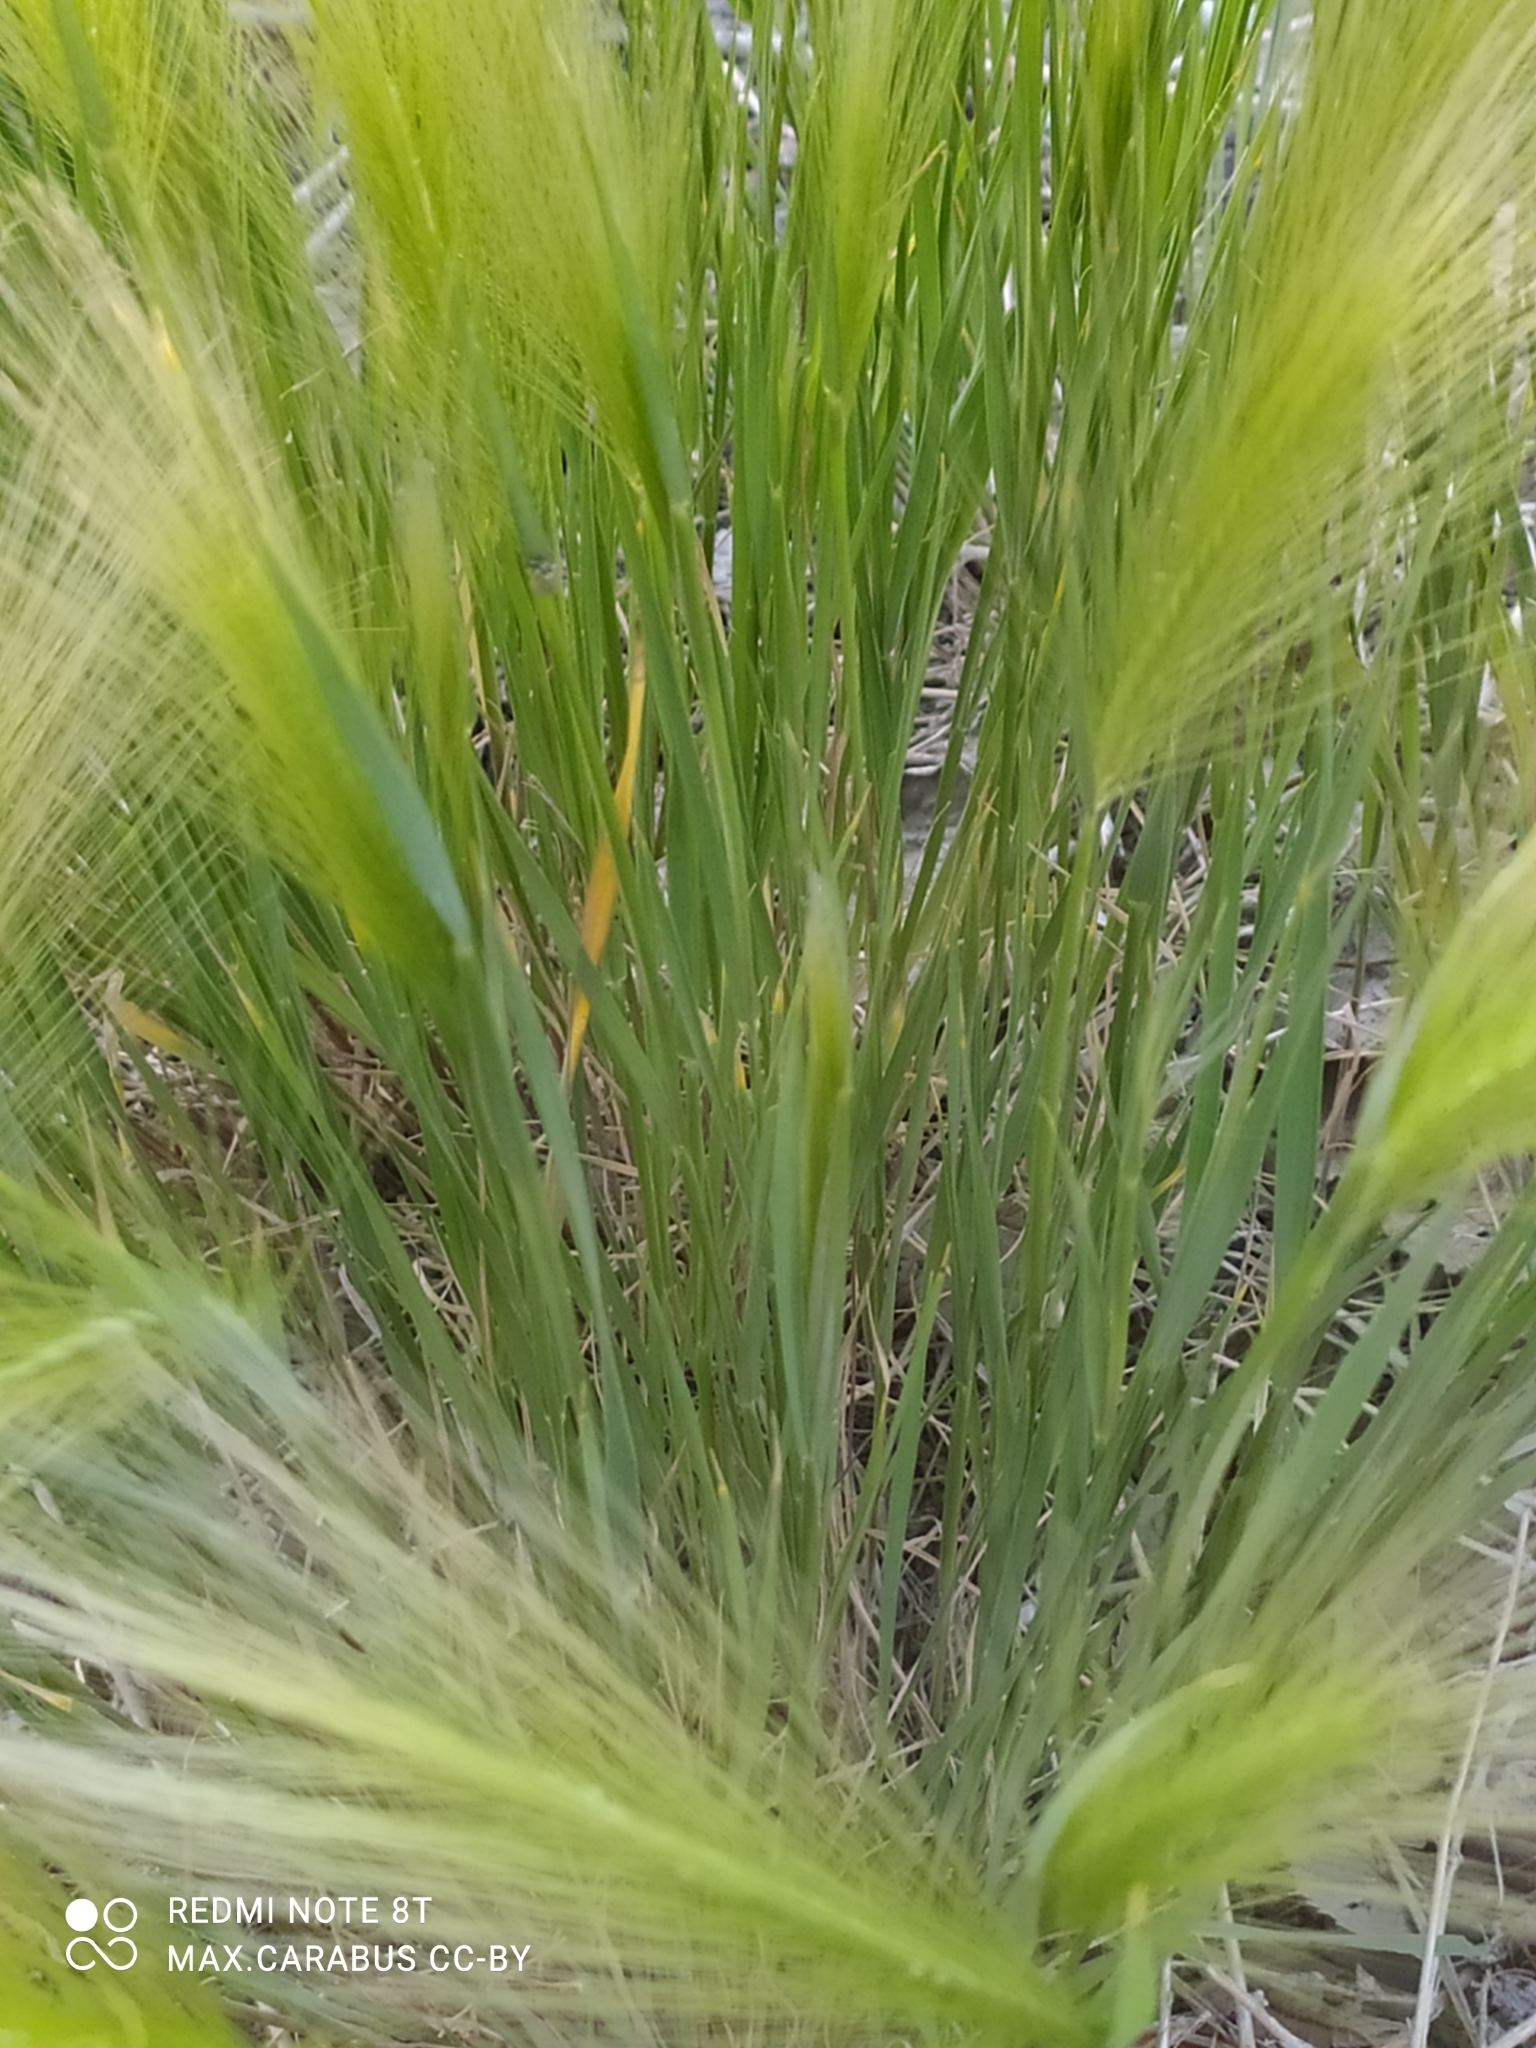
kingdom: Plantae
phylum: Tracheophyta
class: Liliopsida
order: Poales
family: Poaceae
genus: Hordeum
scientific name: Hordeum jubatum
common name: Foxtail barley
